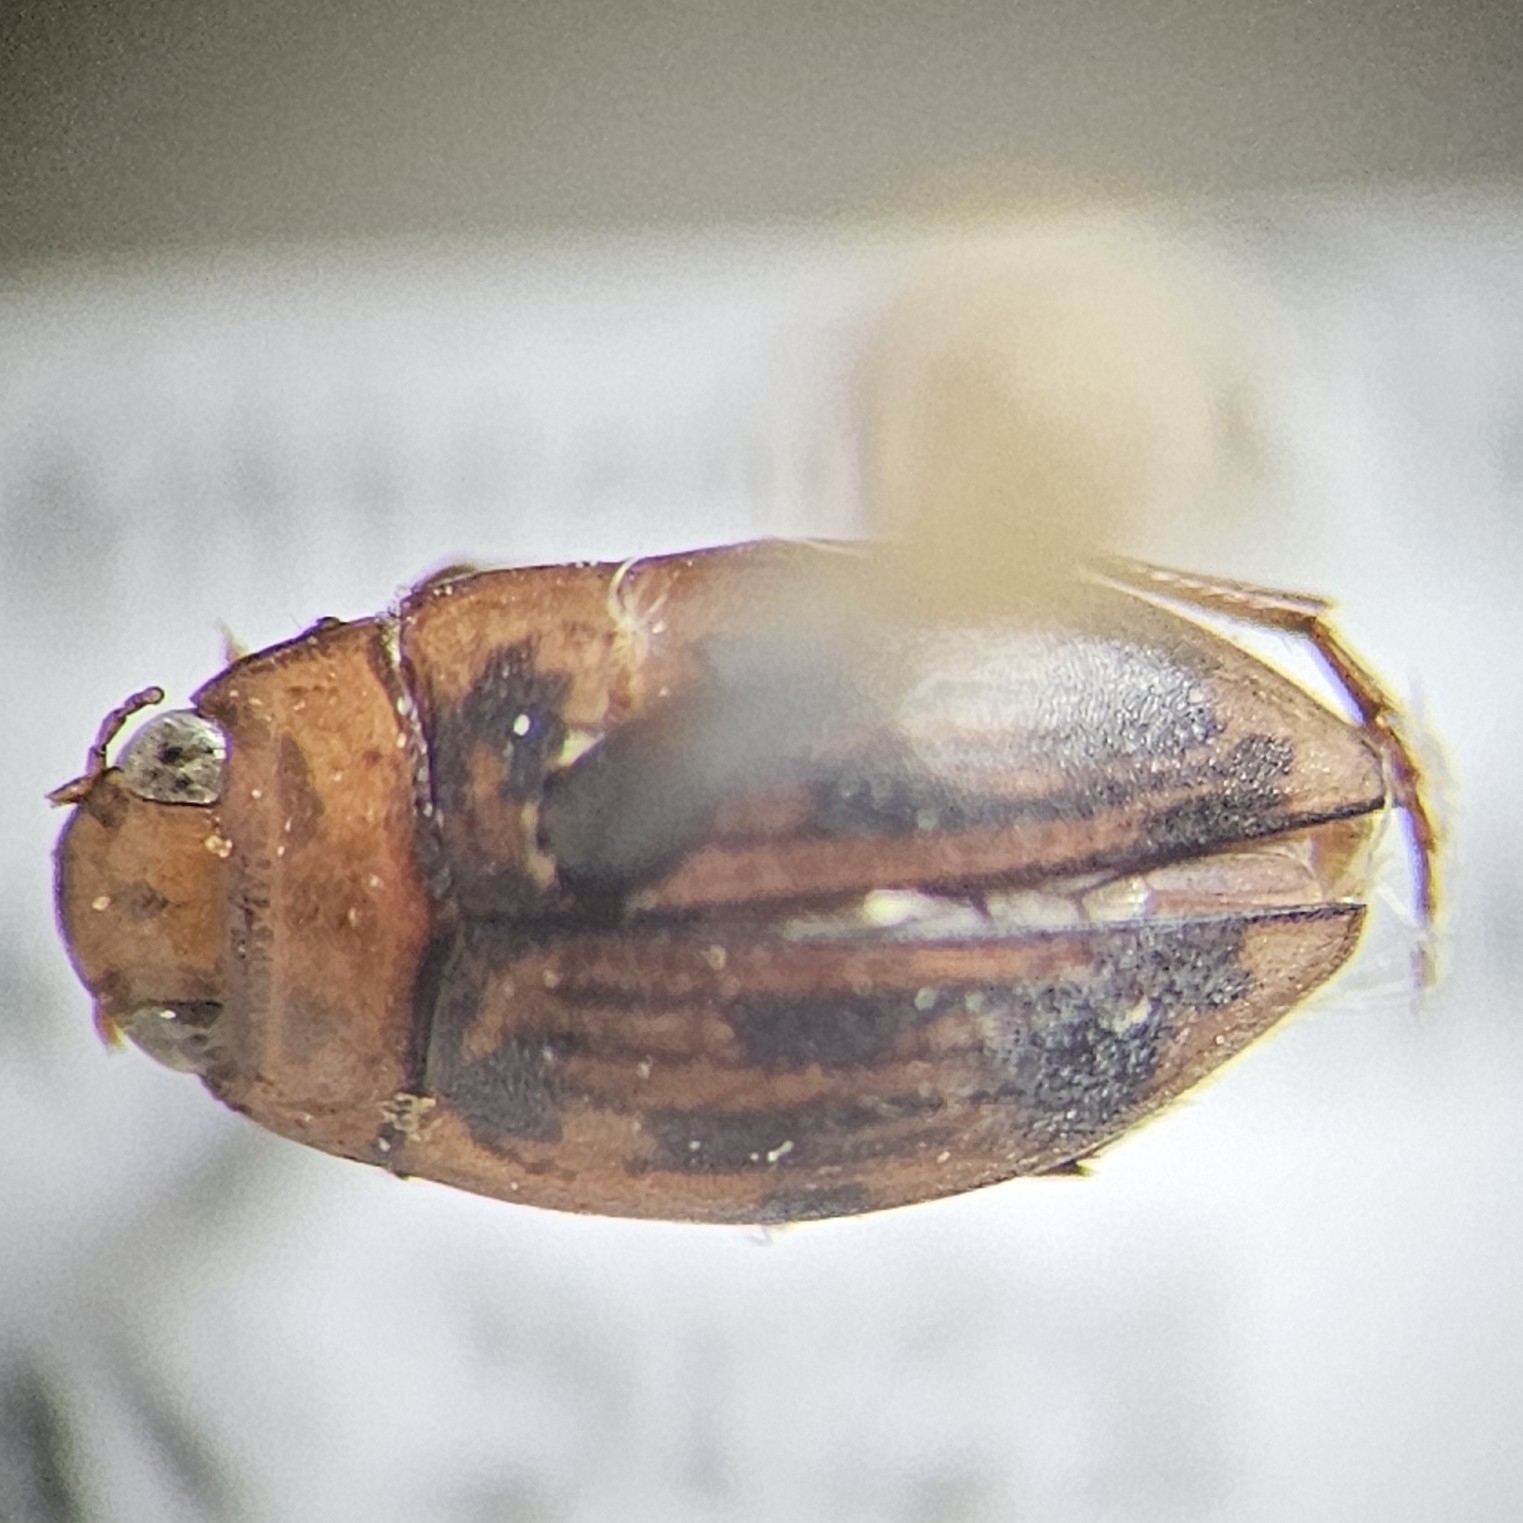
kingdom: Animalia
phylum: Arthropoda
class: Insecta
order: Coleoptera
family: Dytiscidae
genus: Neoporus
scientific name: Neoporus dimidiatus
